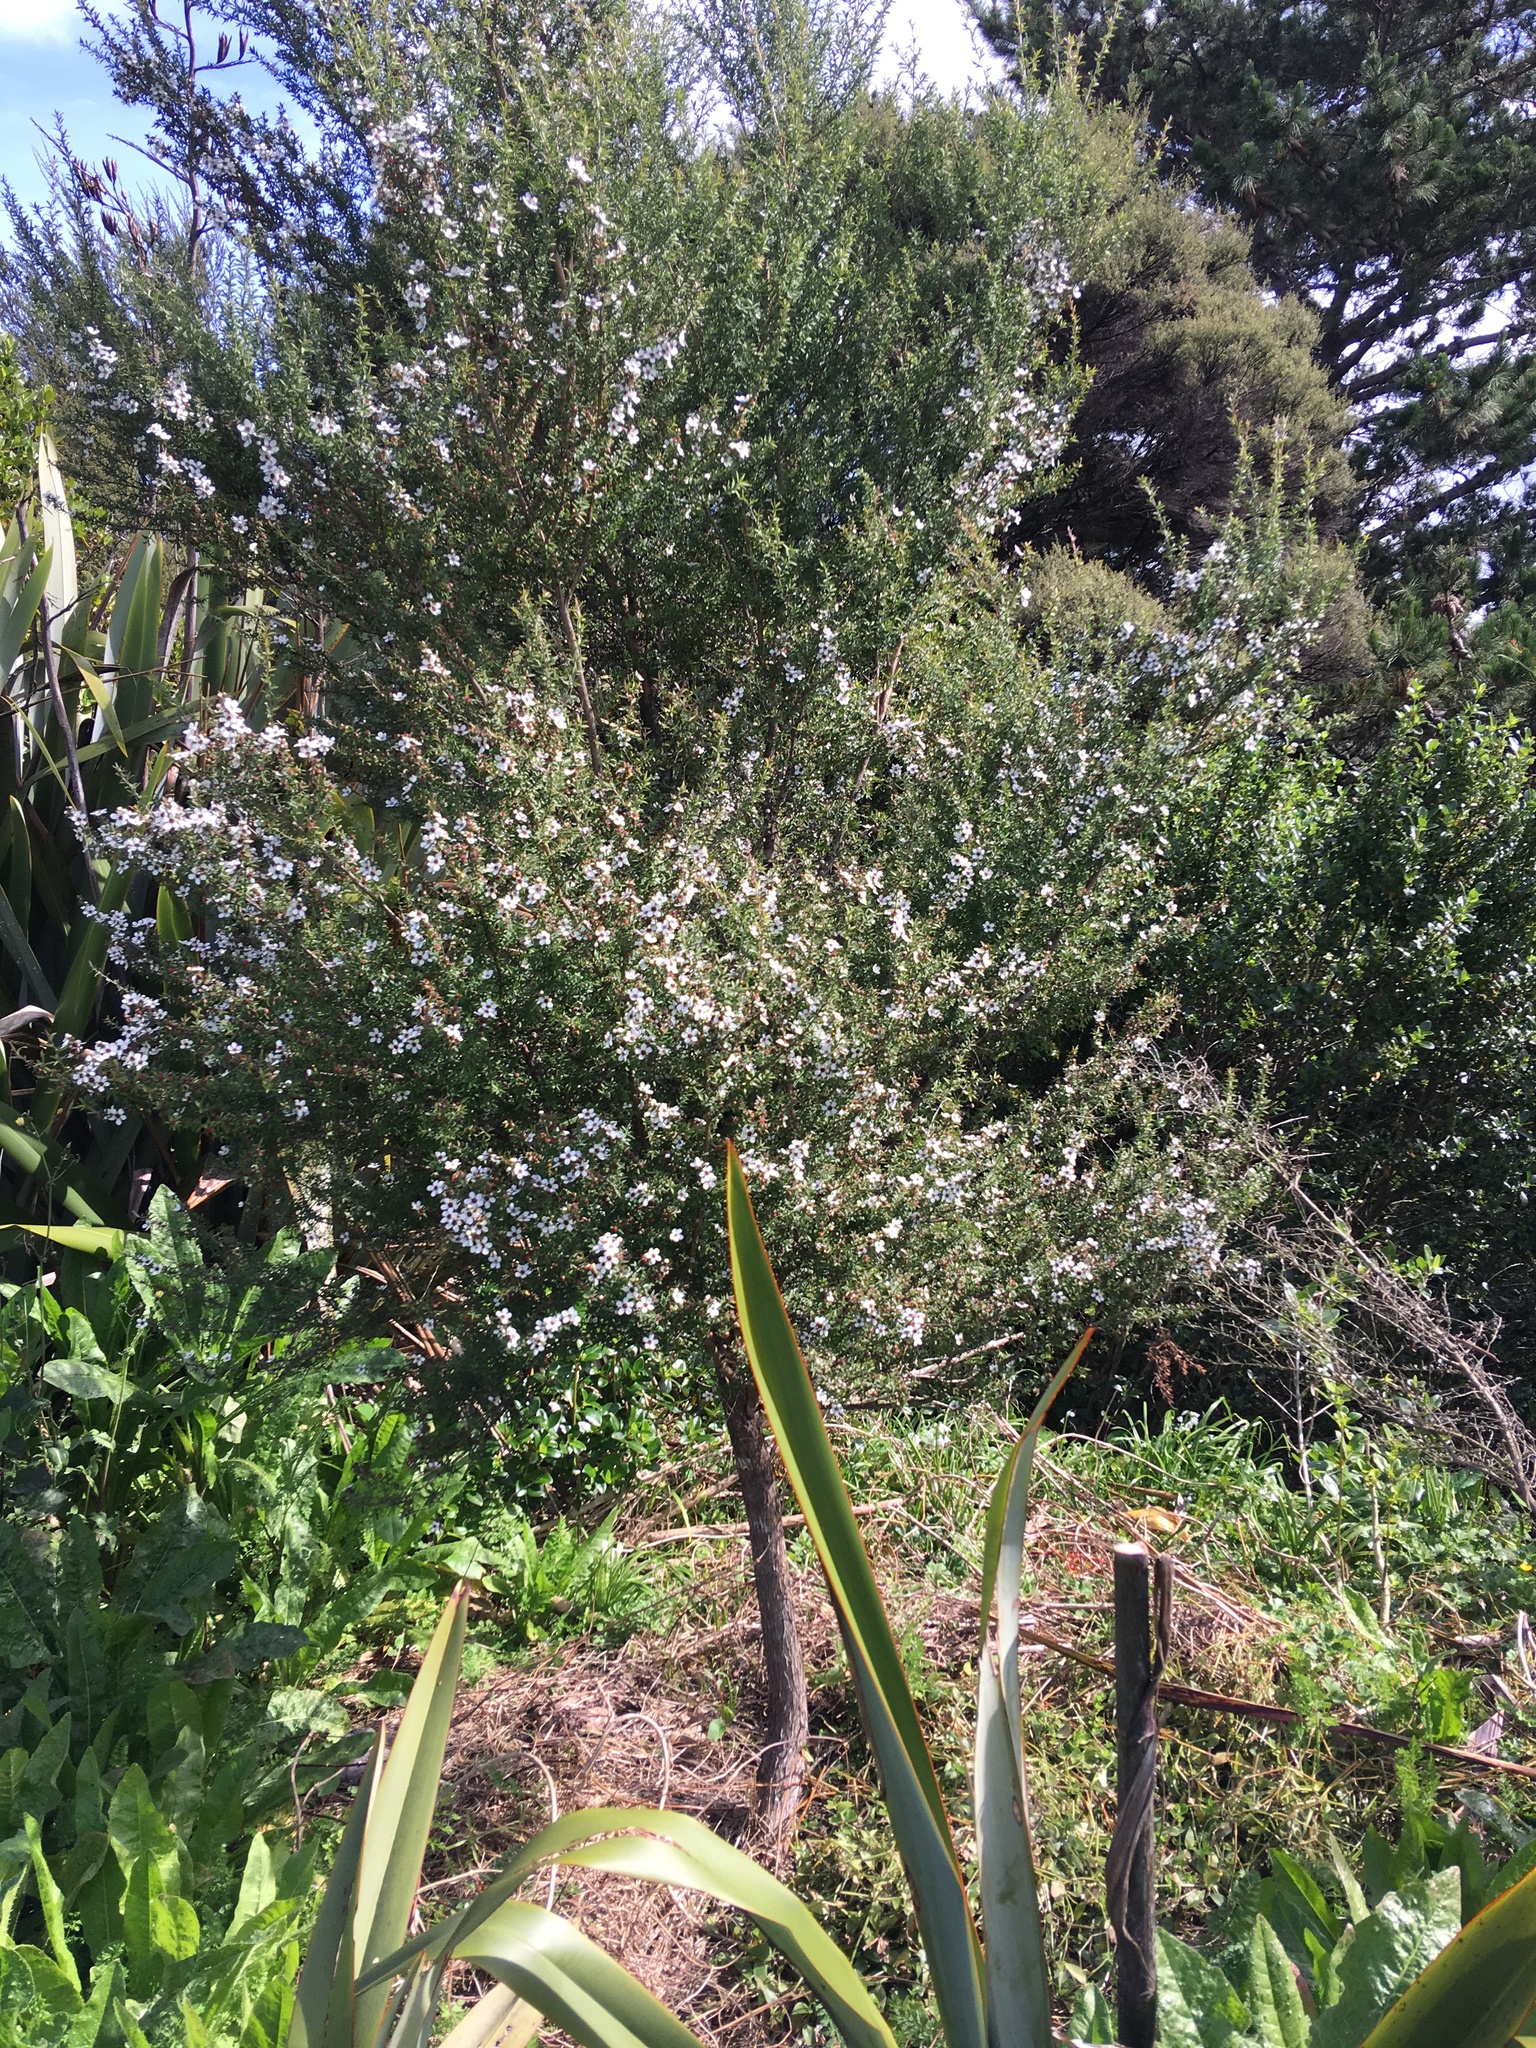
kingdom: Plantae
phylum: Tracheophyta
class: Magnoliopsida
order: Myrtales
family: Myrtaceae
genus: Leptospermum
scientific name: Leptospermum scoparium
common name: Broom tea-tree
